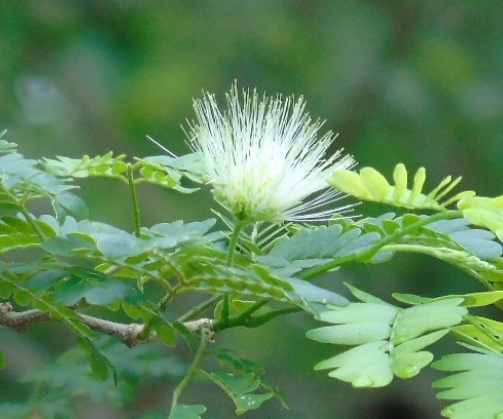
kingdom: Plantae
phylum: Tracheophyta
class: Magnoliopsida
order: Fabales
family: Fabaceae
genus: Chloroleucon
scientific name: Chloroleucon mangense
